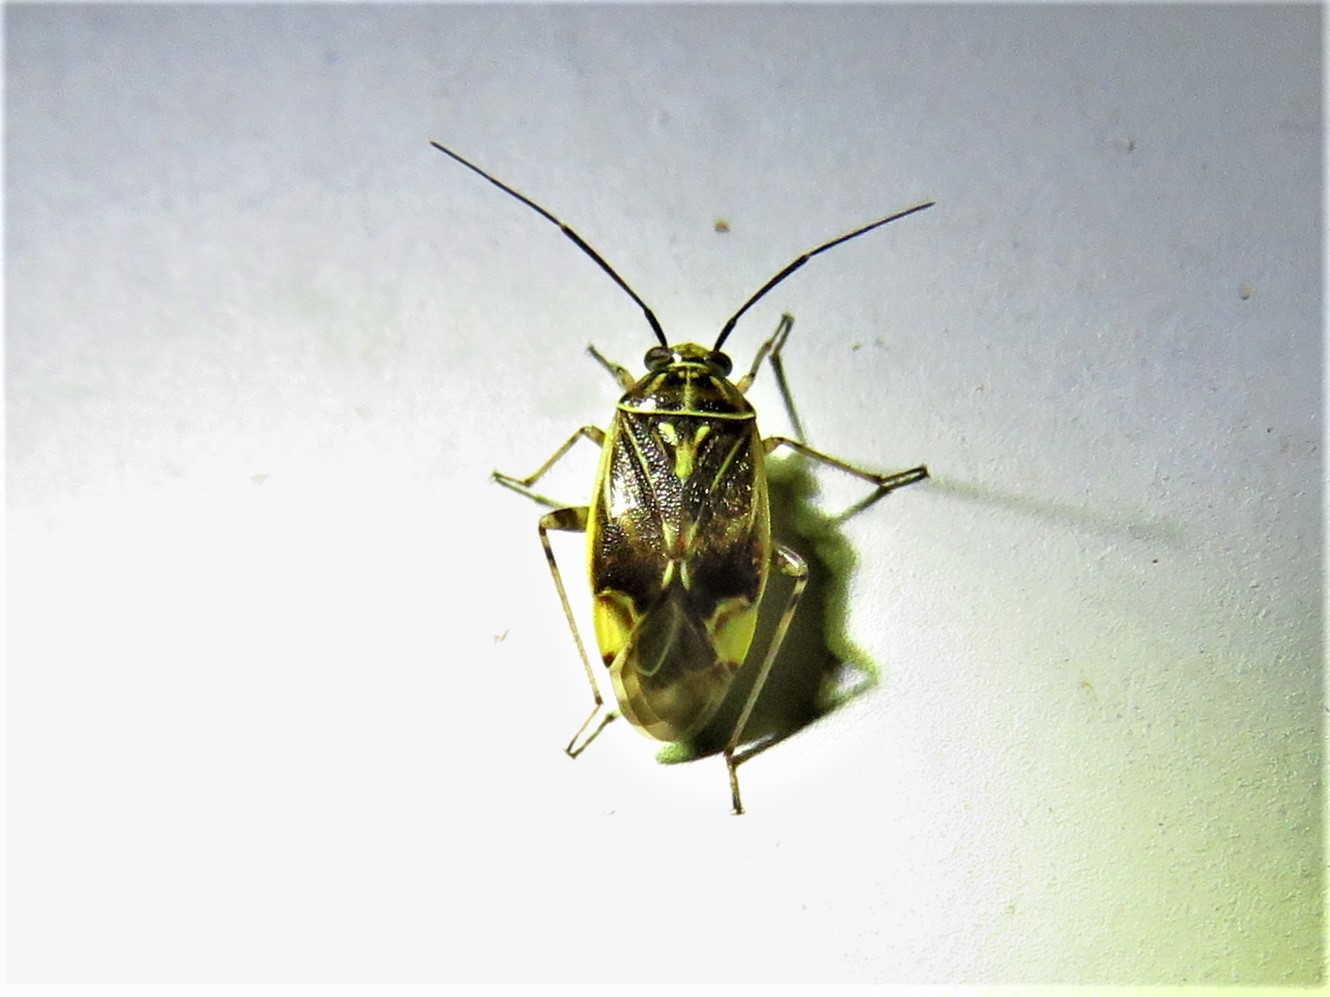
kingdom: Animalia
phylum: Arthropoda
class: Insecta
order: Hemiptera
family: Miridae
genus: Lygus
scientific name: Lygus lineolaris
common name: North american tarnished plant bug
